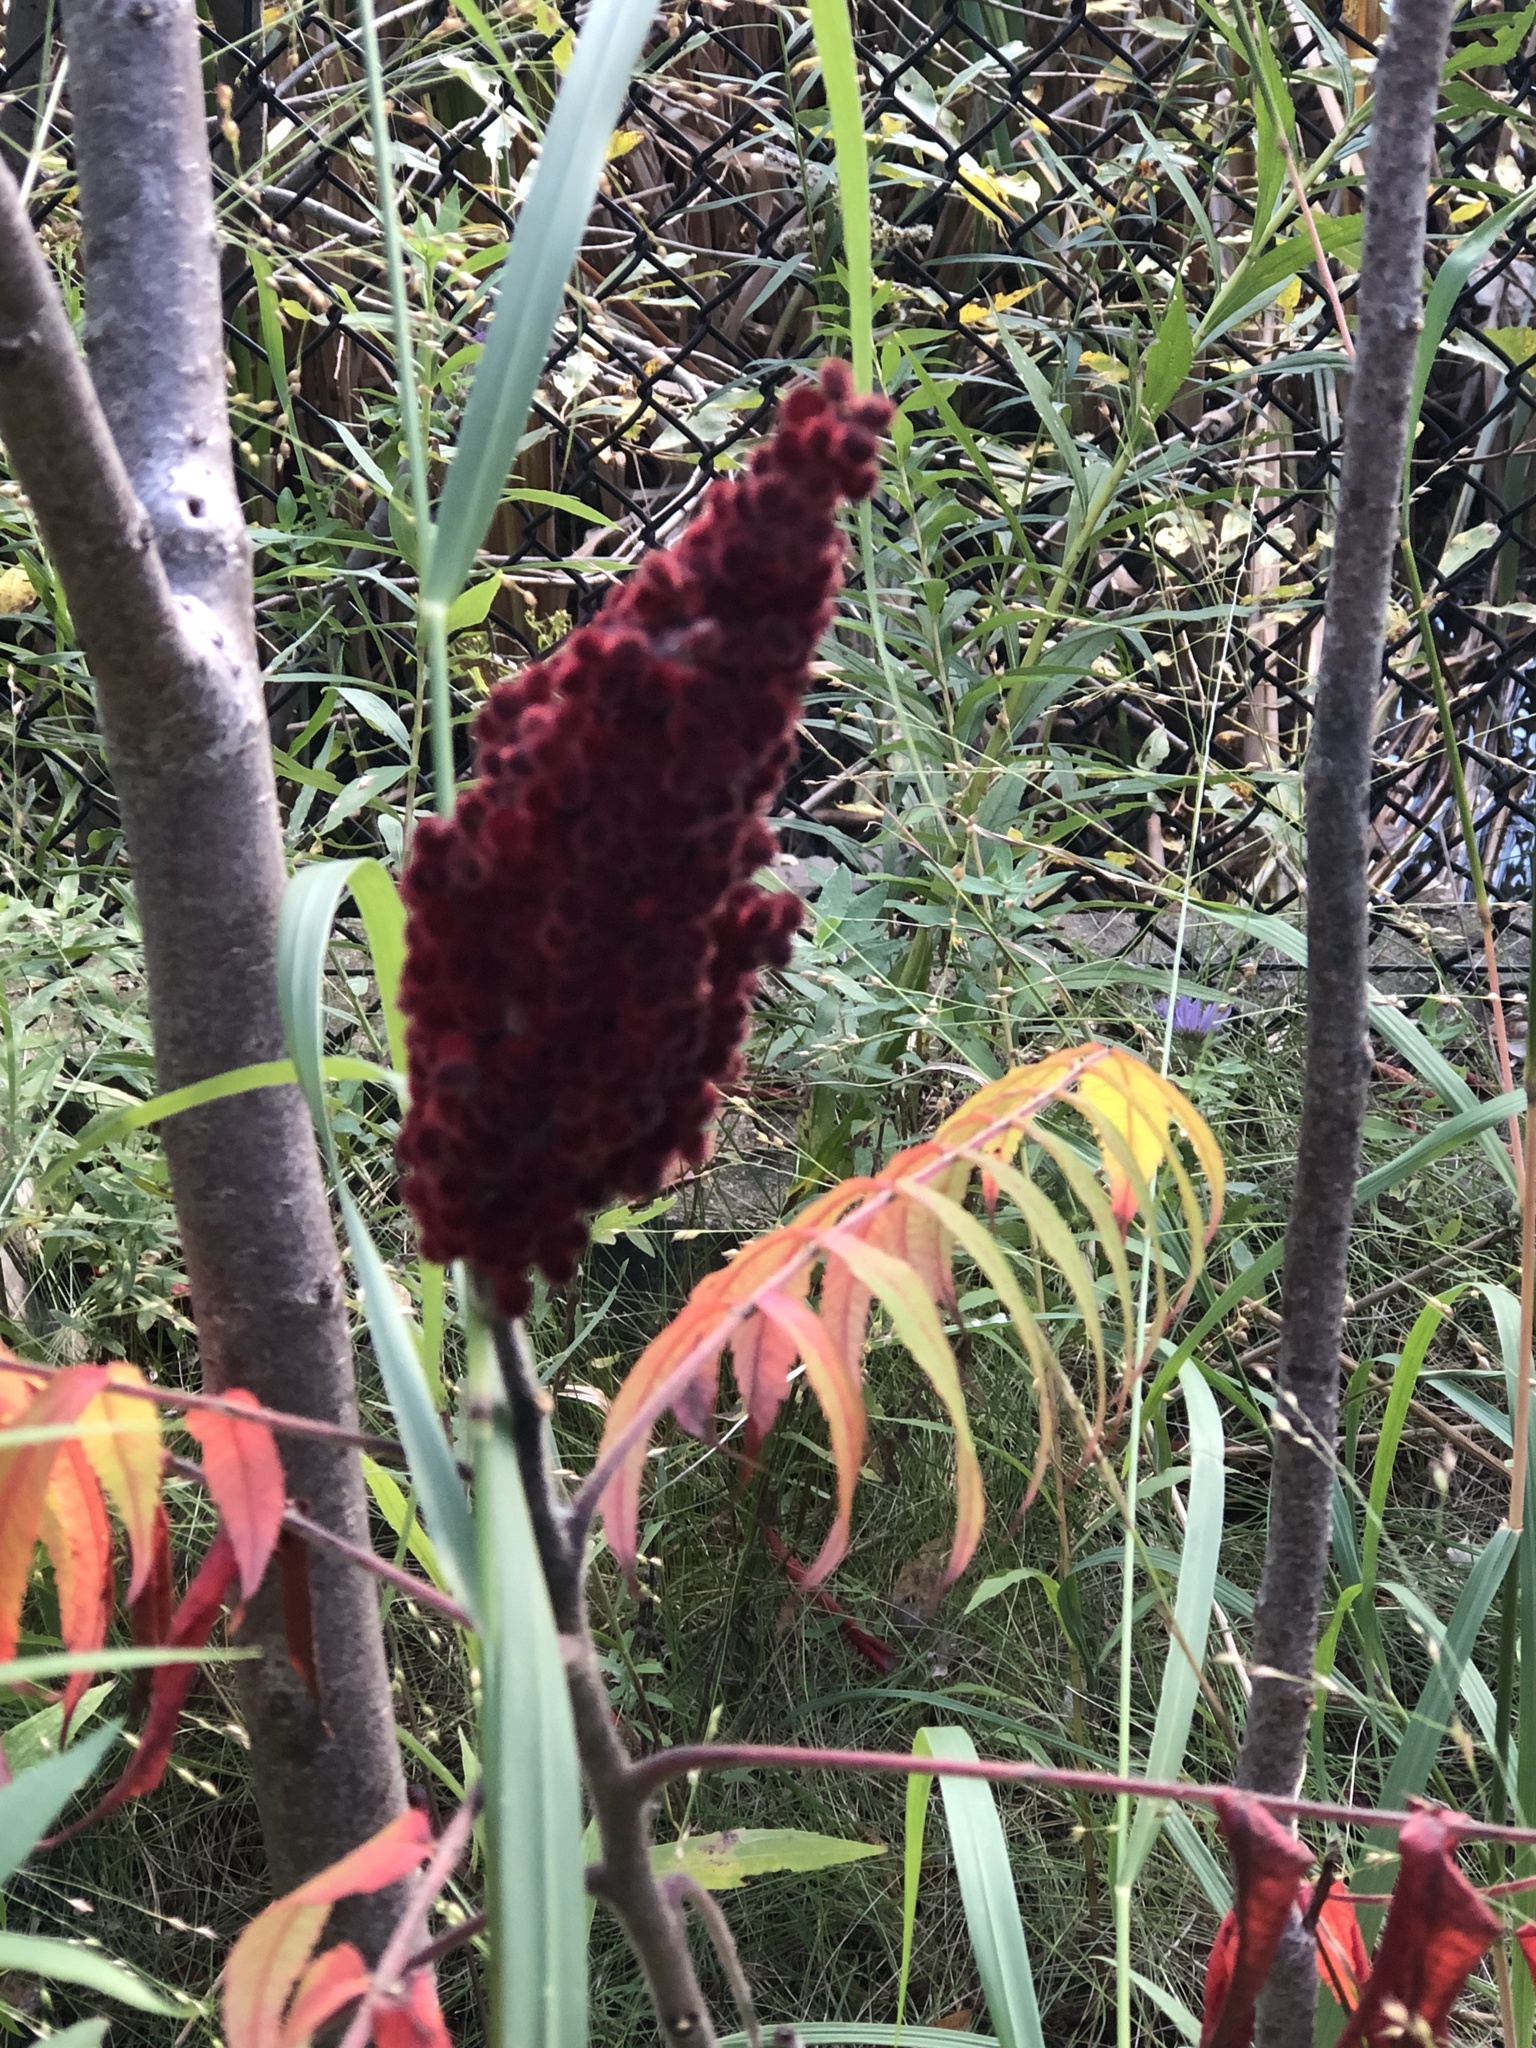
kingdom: Plantae
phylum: Tracheophyta
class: Magnoliopsida
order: Sapindales
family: Anacardiaceae
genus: Rhus
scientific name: Rhus typhina
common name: Staghorn sumac
